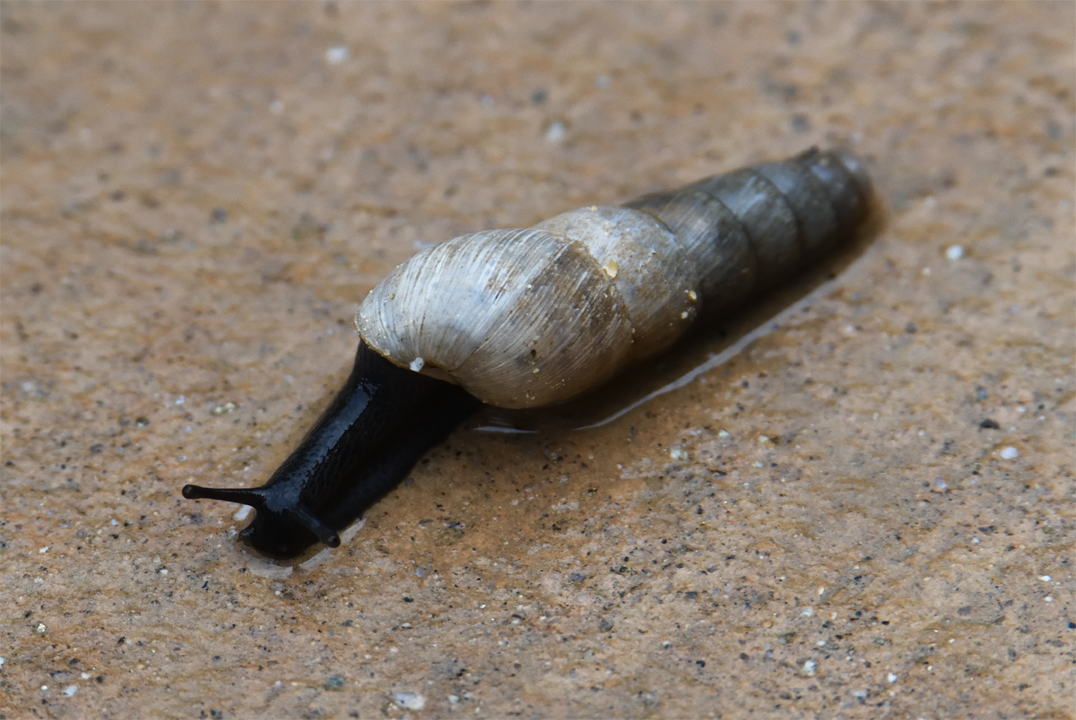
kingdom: Animalia
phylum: Mollusca
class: Gastropoda
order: Stylommatophora
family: Achatinidae
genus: Rumina
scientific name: Rumina decollata
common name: Decollate snail
